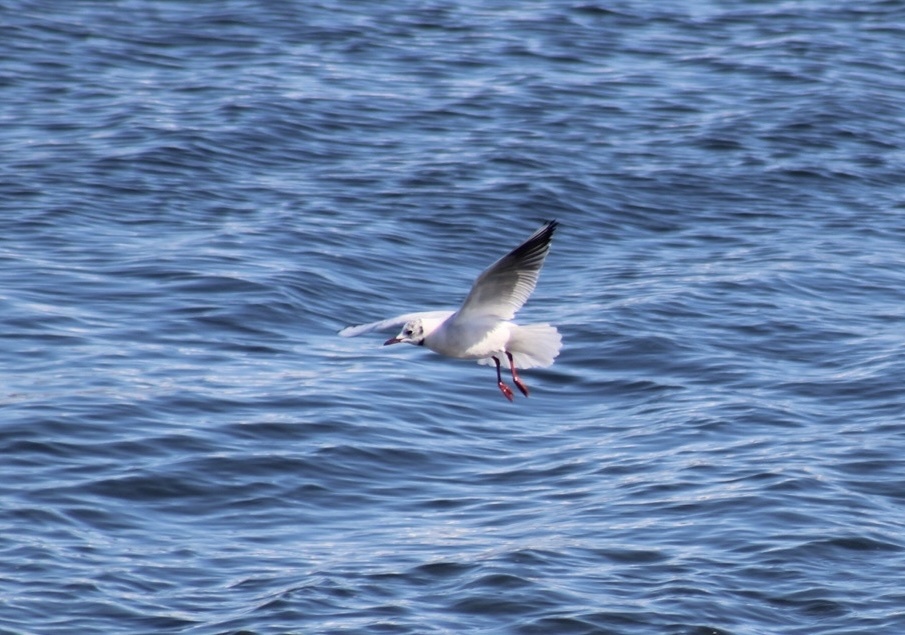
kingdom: Animalia
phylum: Chordata
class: Aves
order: Charadriiformes
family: Laridae
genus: Chroicocephalus
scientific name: Chroicocephalus ridibundus
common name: Black-headed gull
